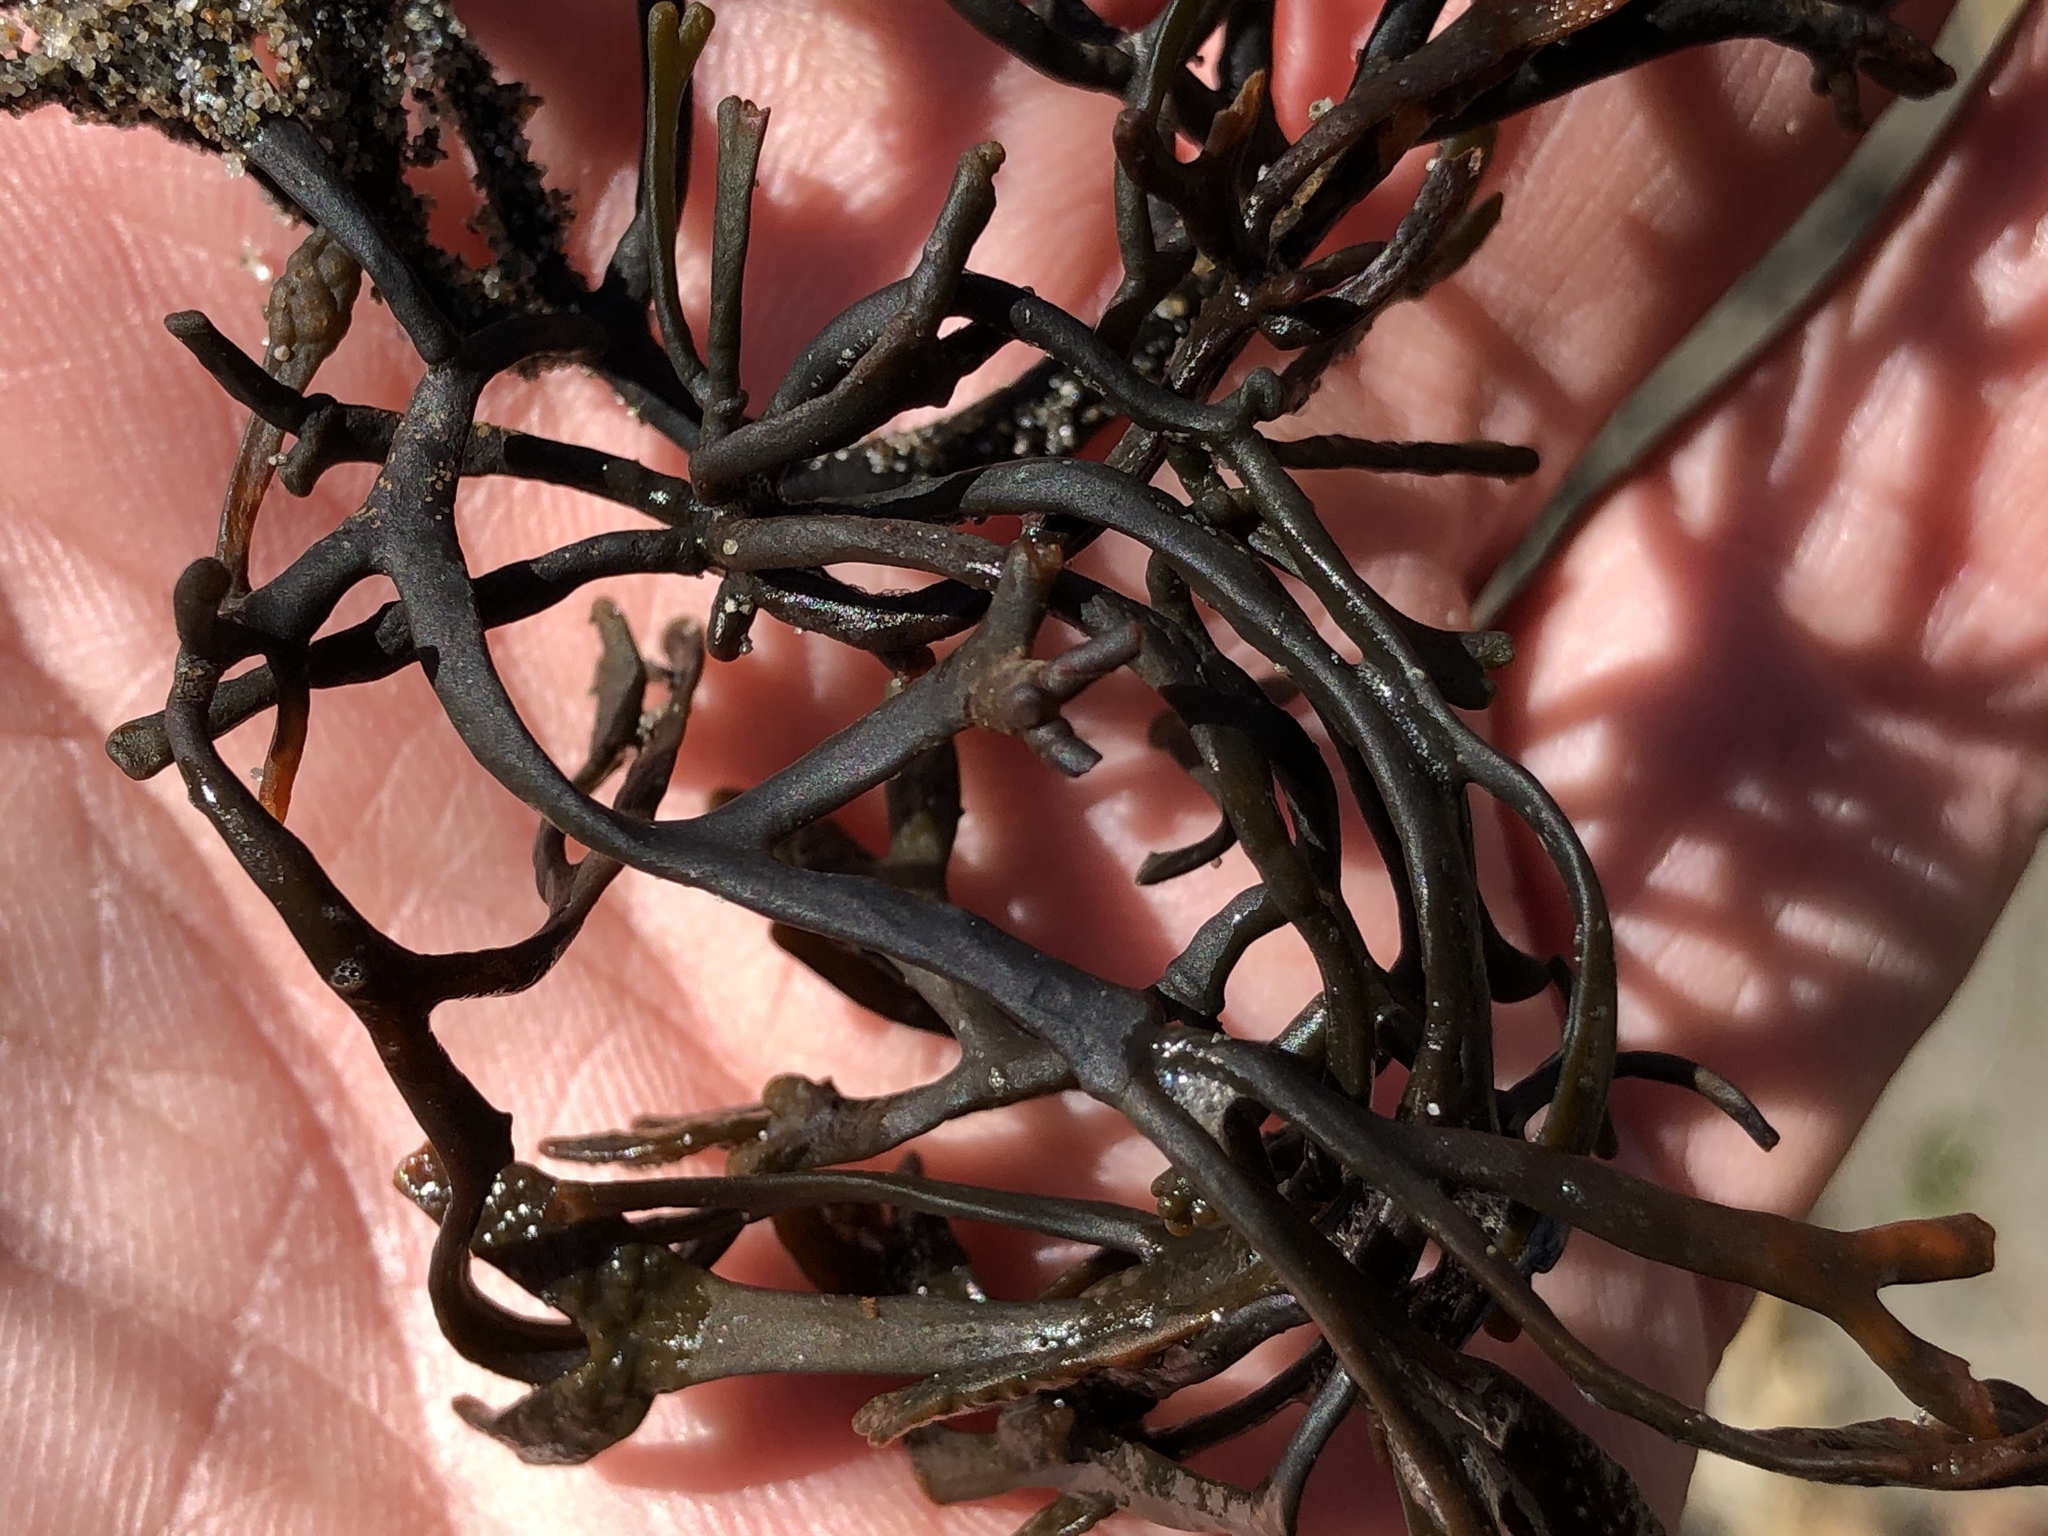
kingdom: Plantae
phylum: Rhodophyta
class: Florideophyceae
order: Gigartinales
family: Phyllophoraceae
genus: Ahnfeltiopsis
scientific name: Ahnfeltiopsis linearis
